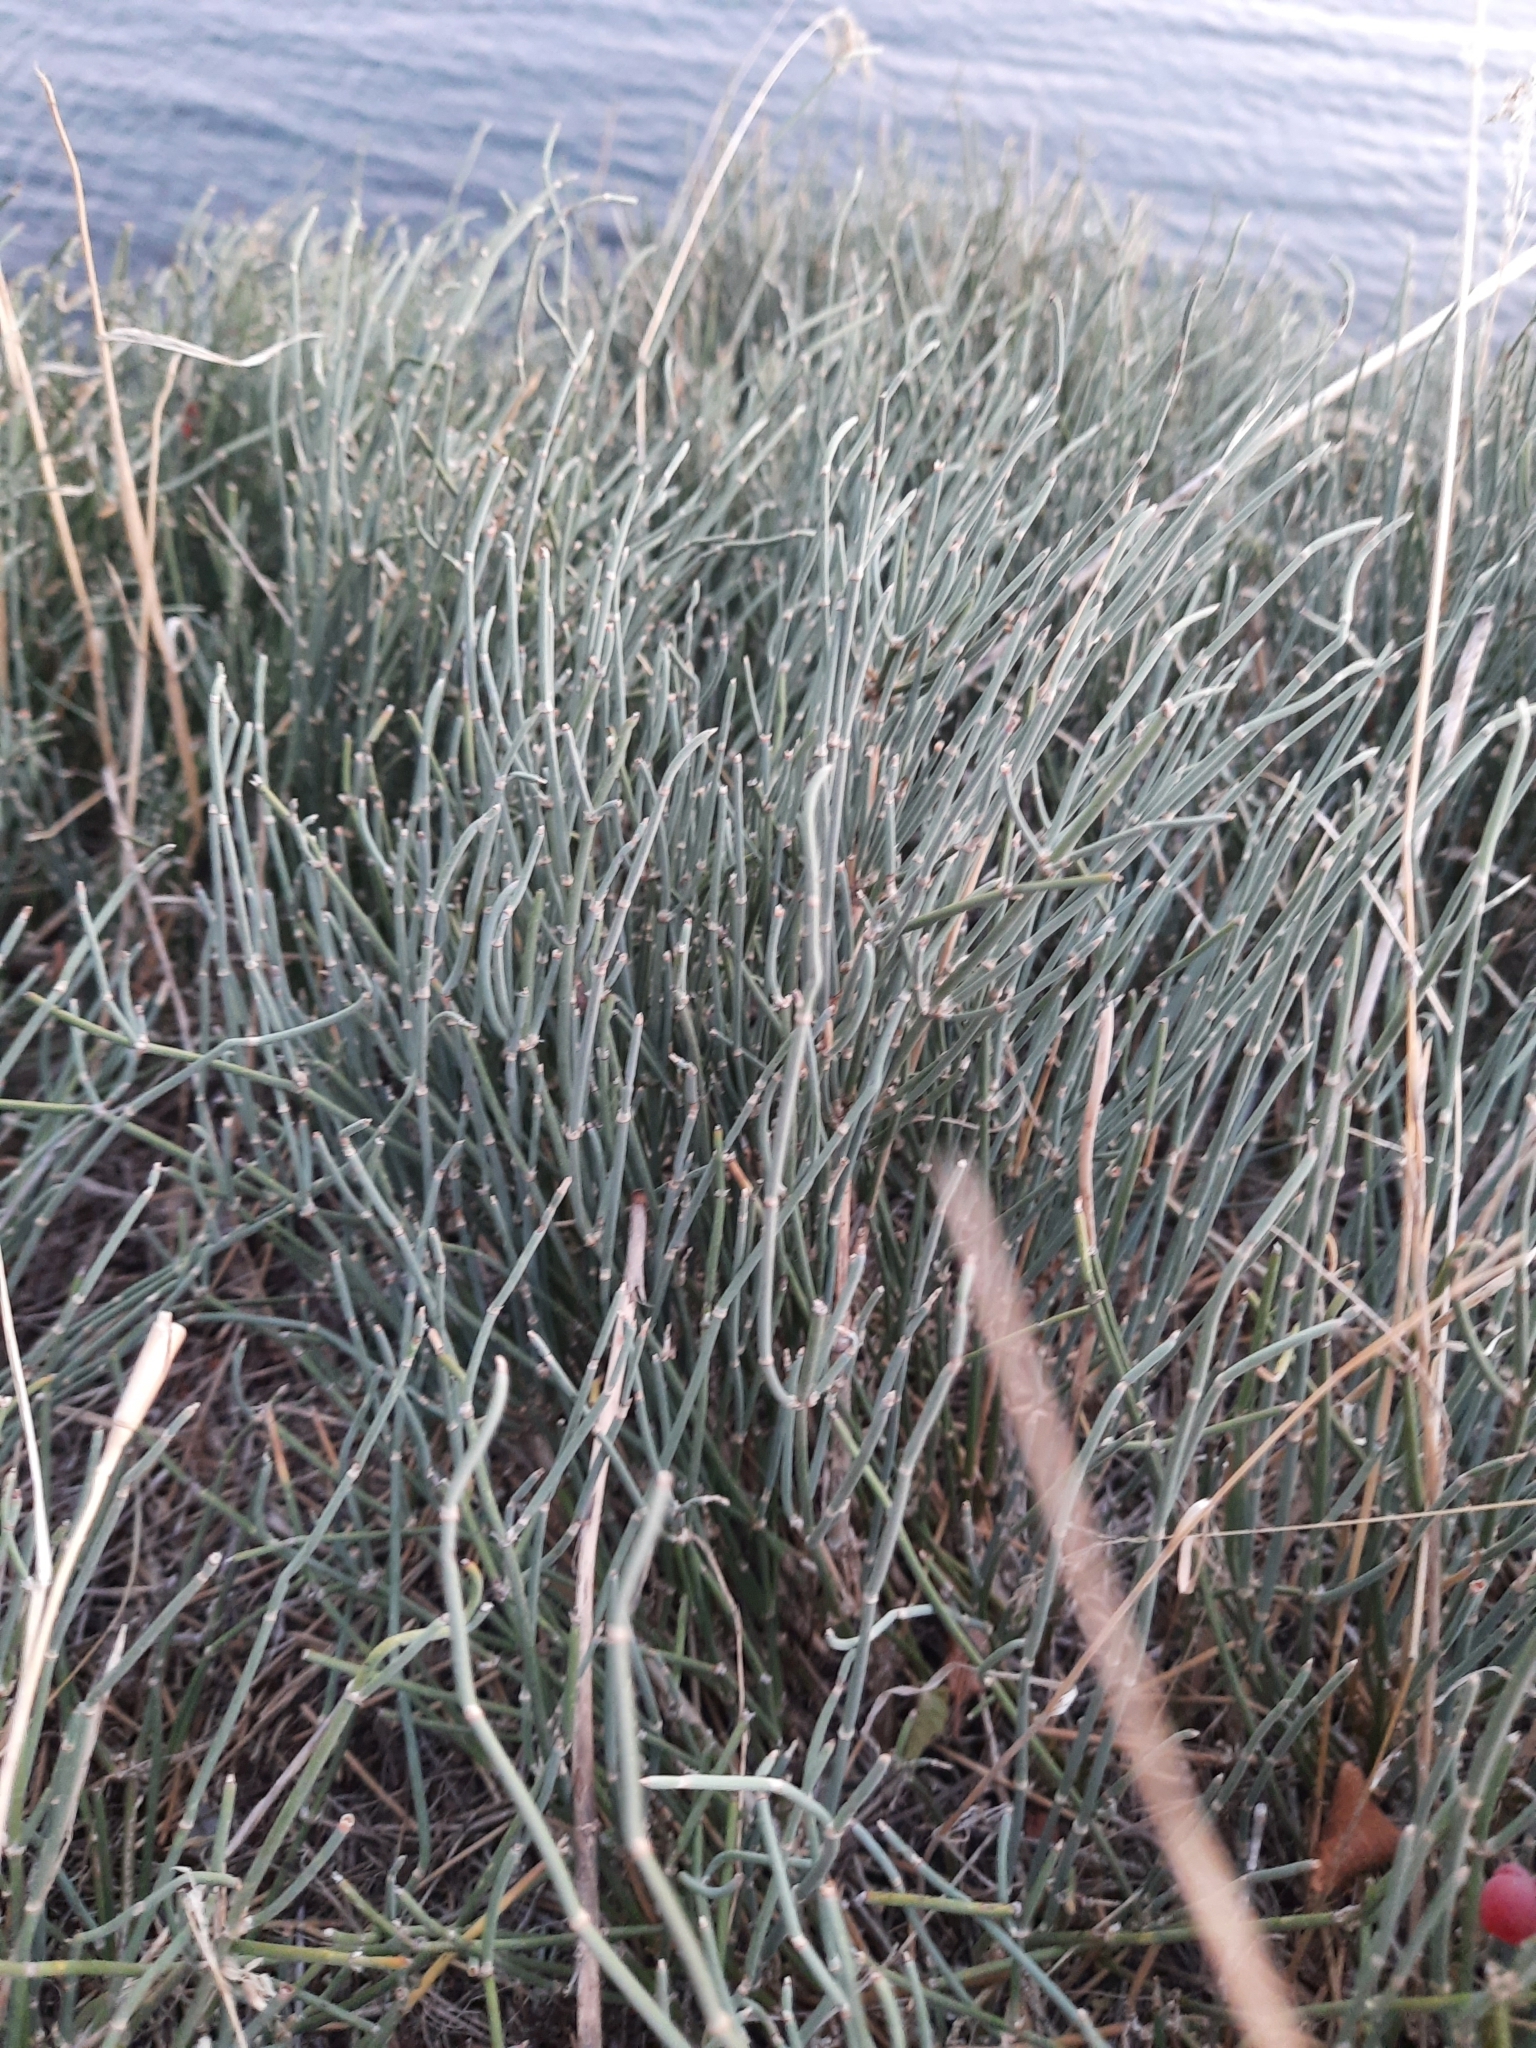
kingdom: Plantae
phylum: Tracheophyta
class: Gnetopsida
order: Ephedrales
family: Ephedraceae
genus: Ephedra
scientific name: Ephedra distachya
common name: Sea grape
